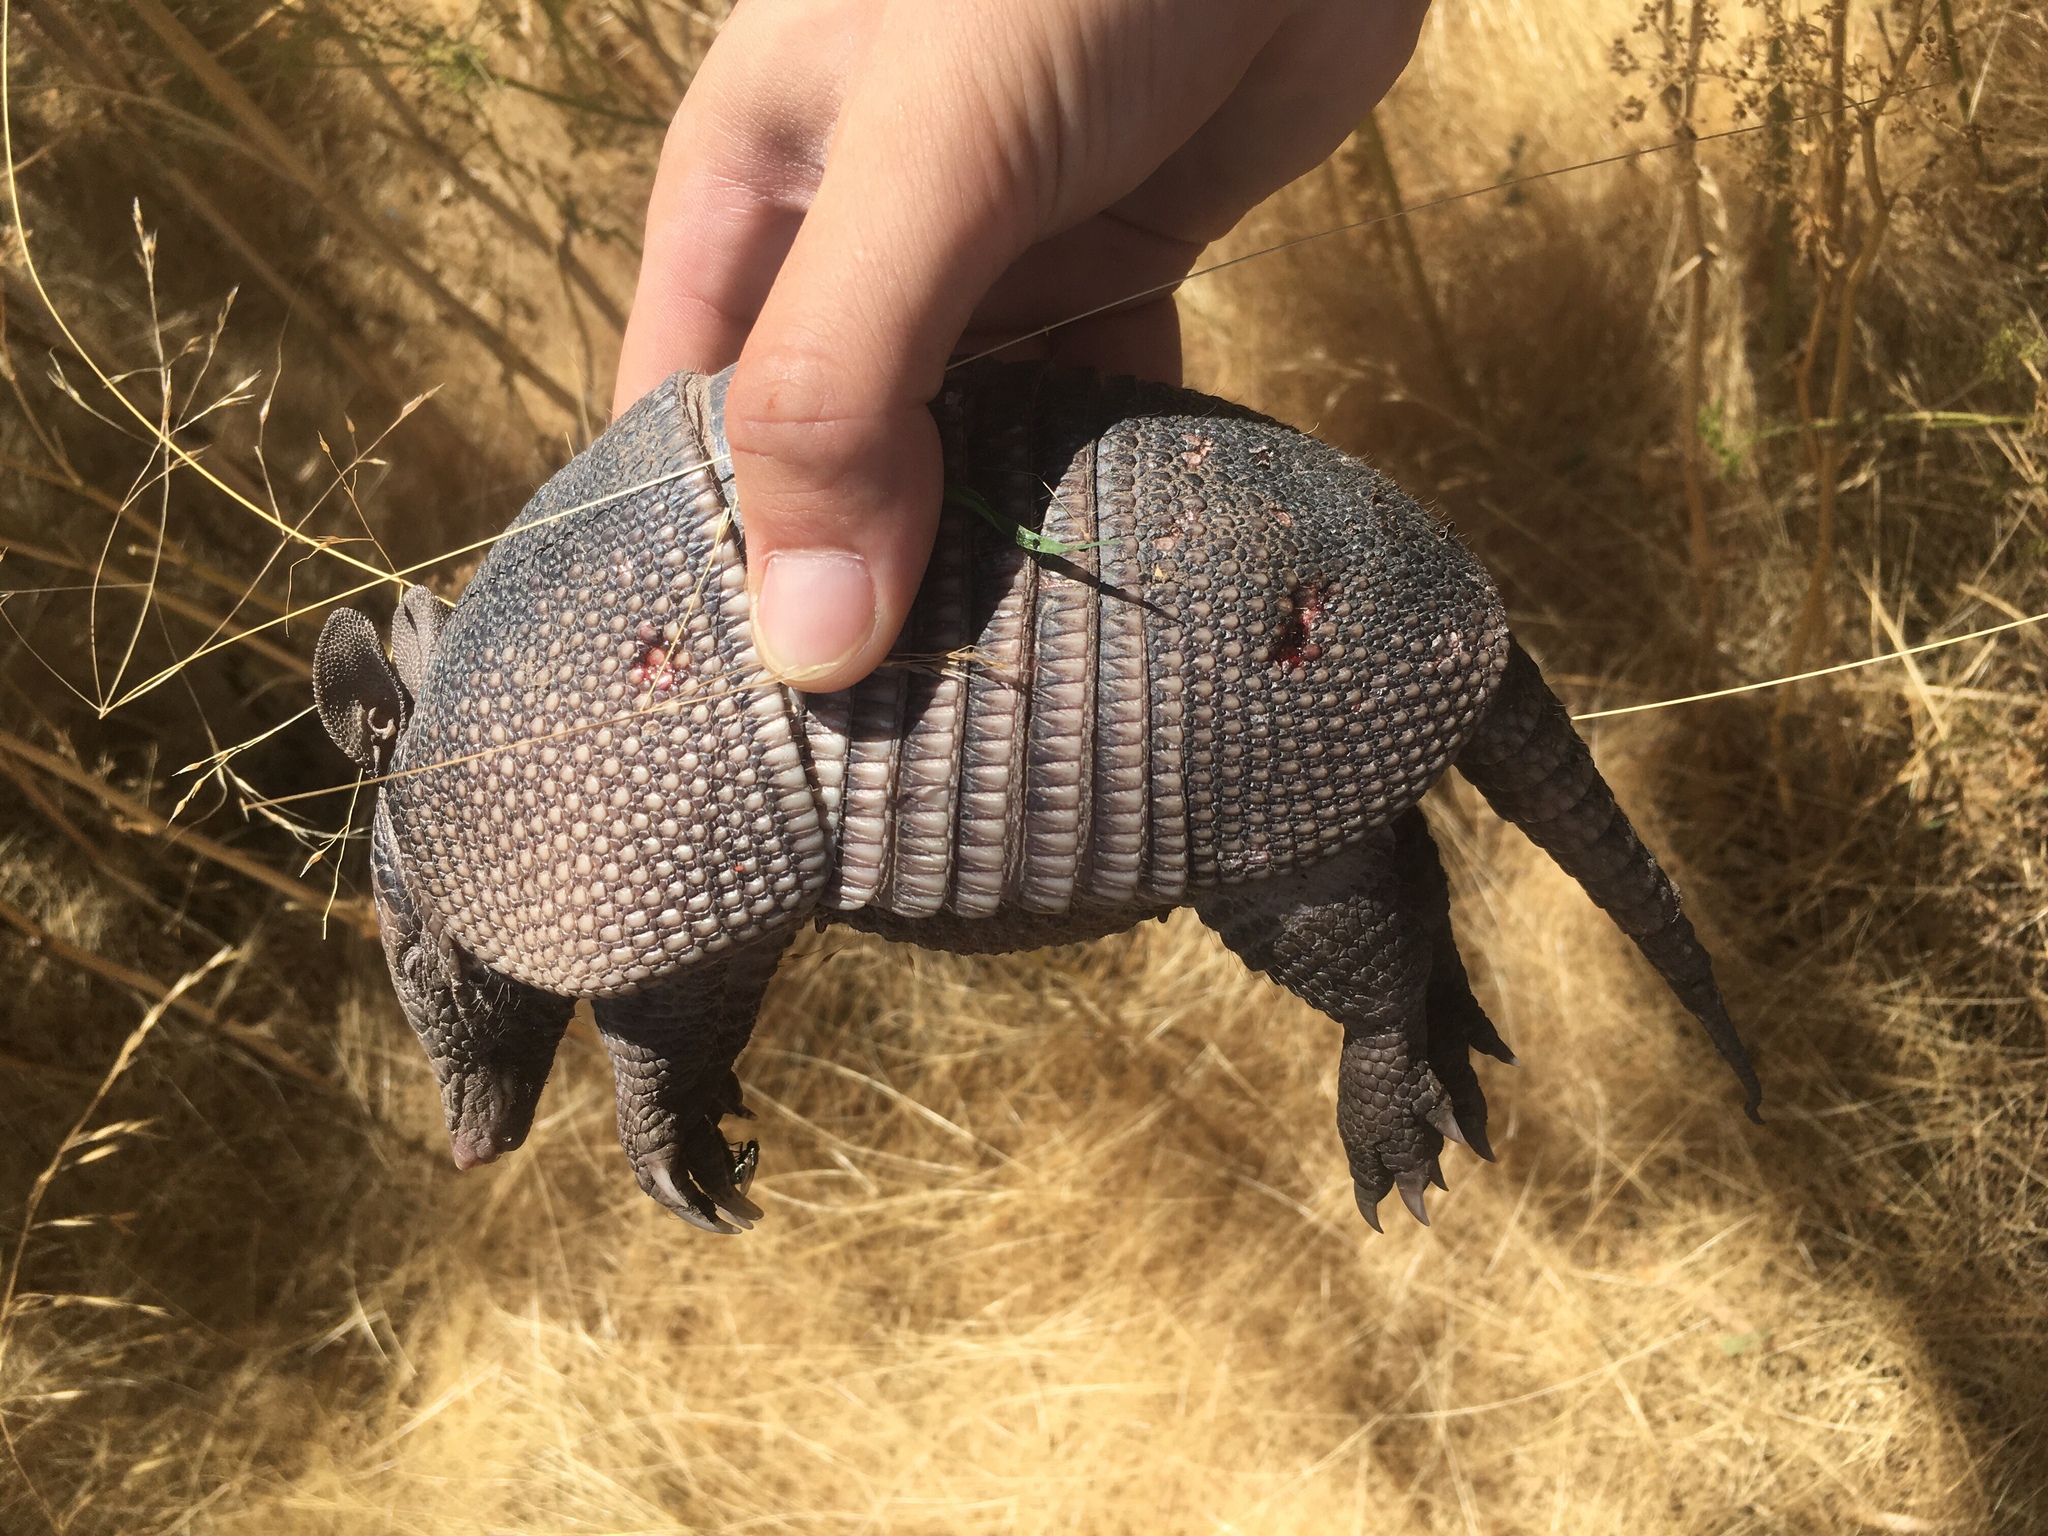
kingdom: Animalia
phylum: Chordata
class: Mammalia
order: Cingulata
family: Dasypodidae
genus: Dasypus
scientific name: Dasypus septemcinctus
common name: Seven-banded armadillo
